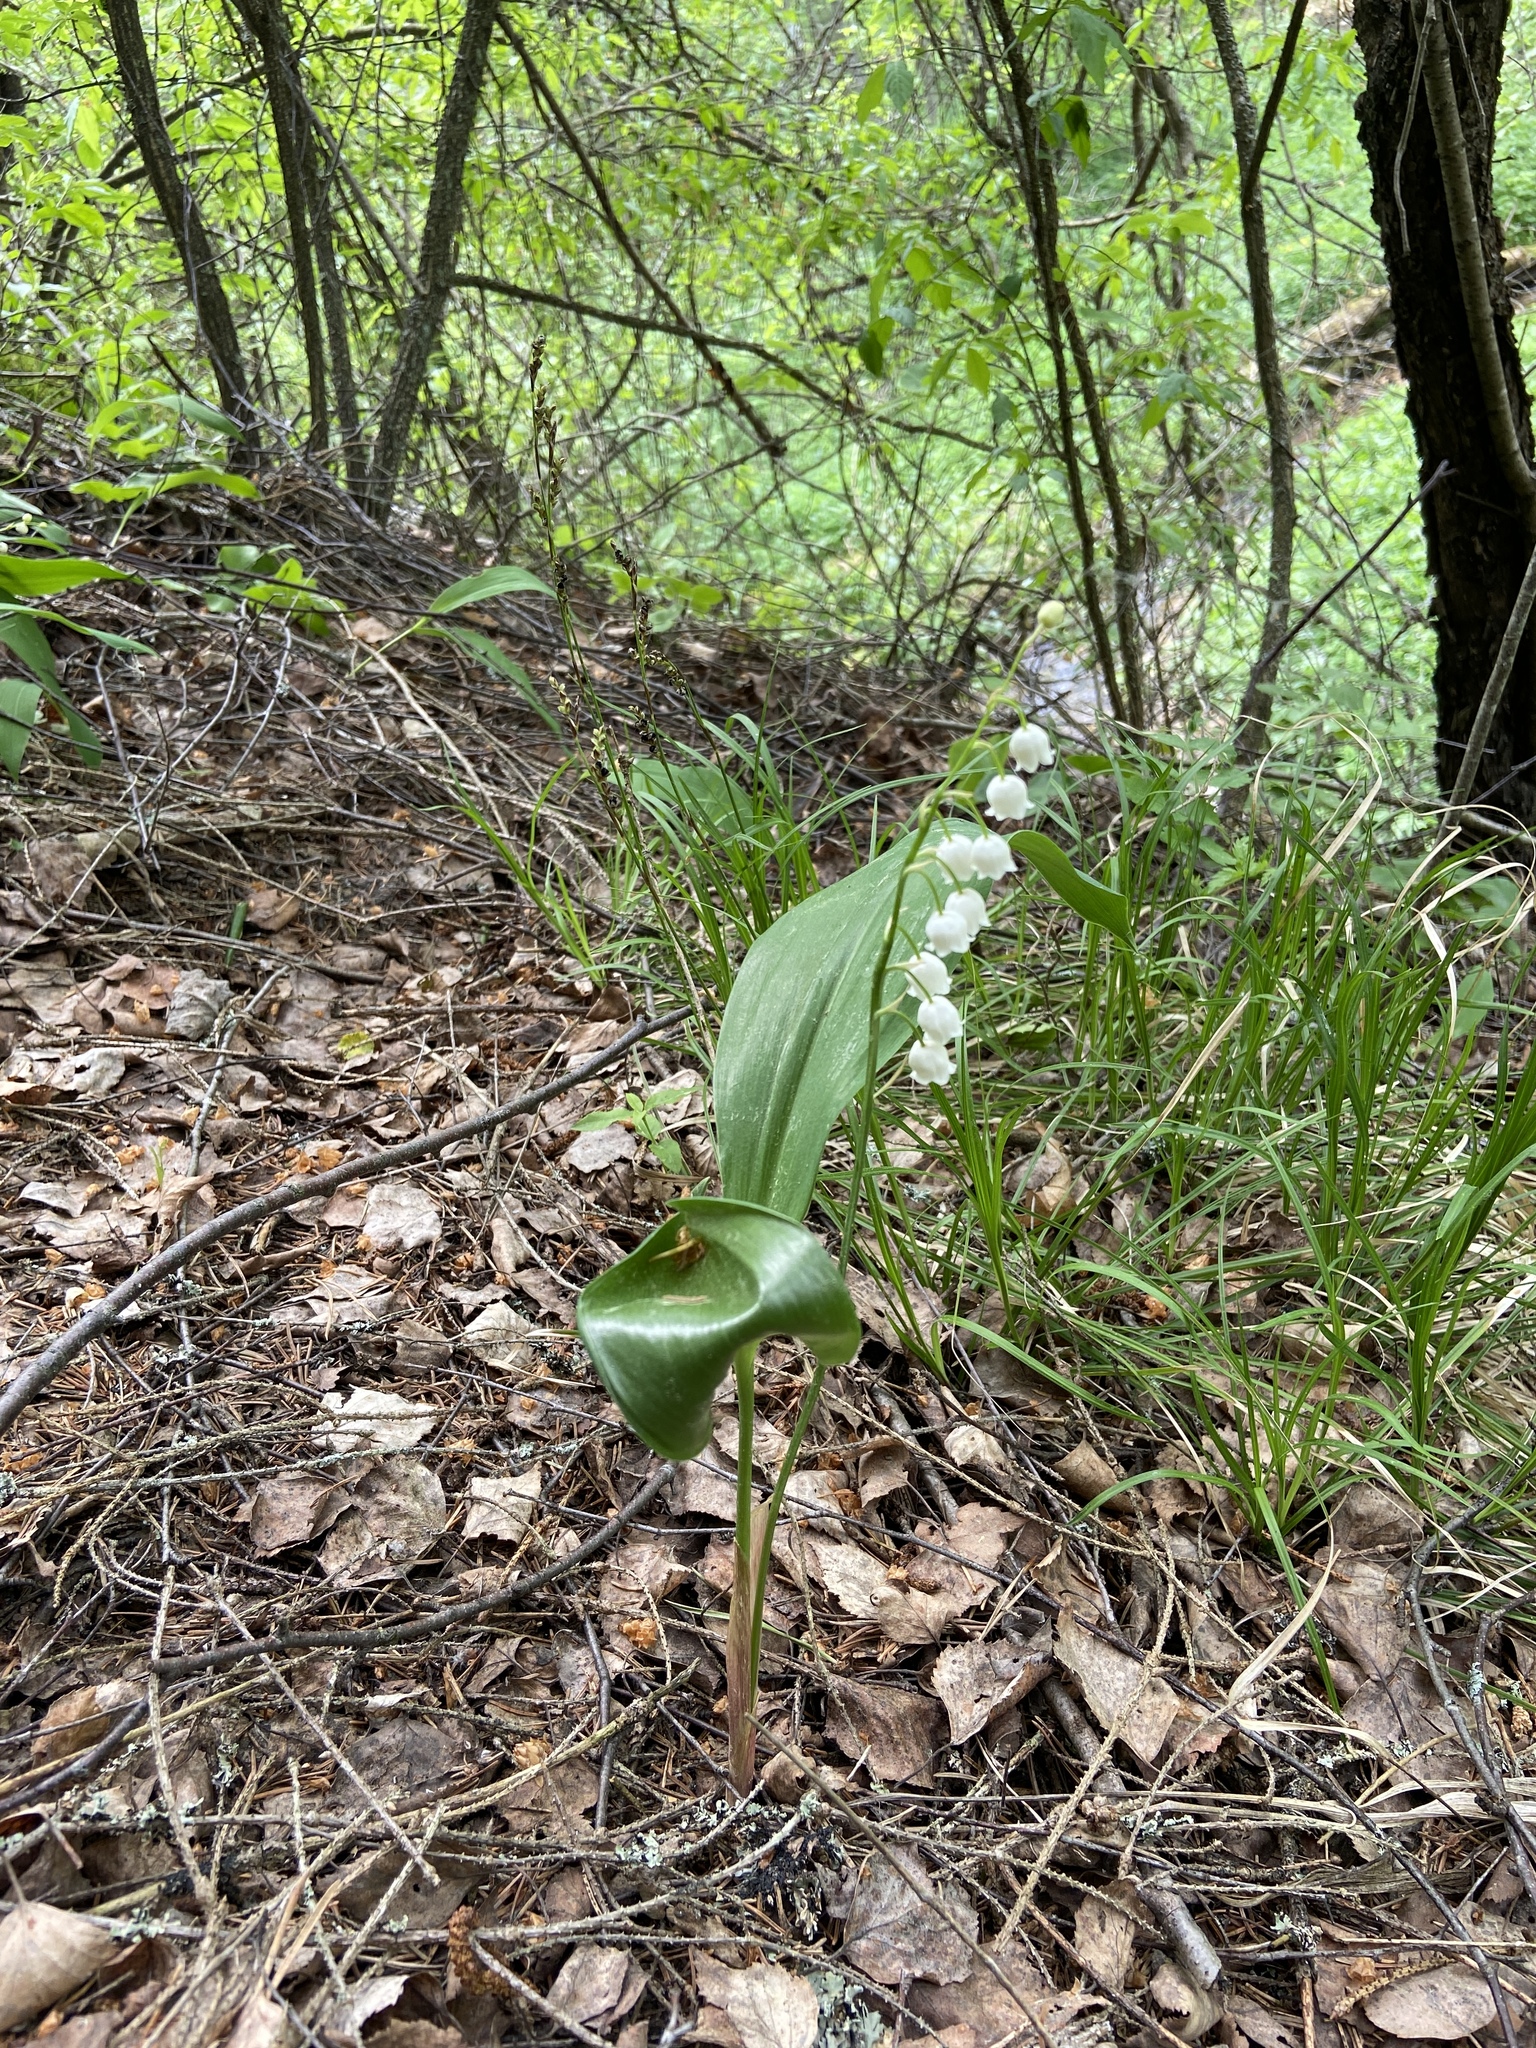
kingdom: Plantae
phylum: Tracheophyta
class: Liliopsida
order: Asparagales
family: Asparagaceae
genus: Convallaria
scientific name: Convallaria majalis
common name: Lily-of-the-valley
